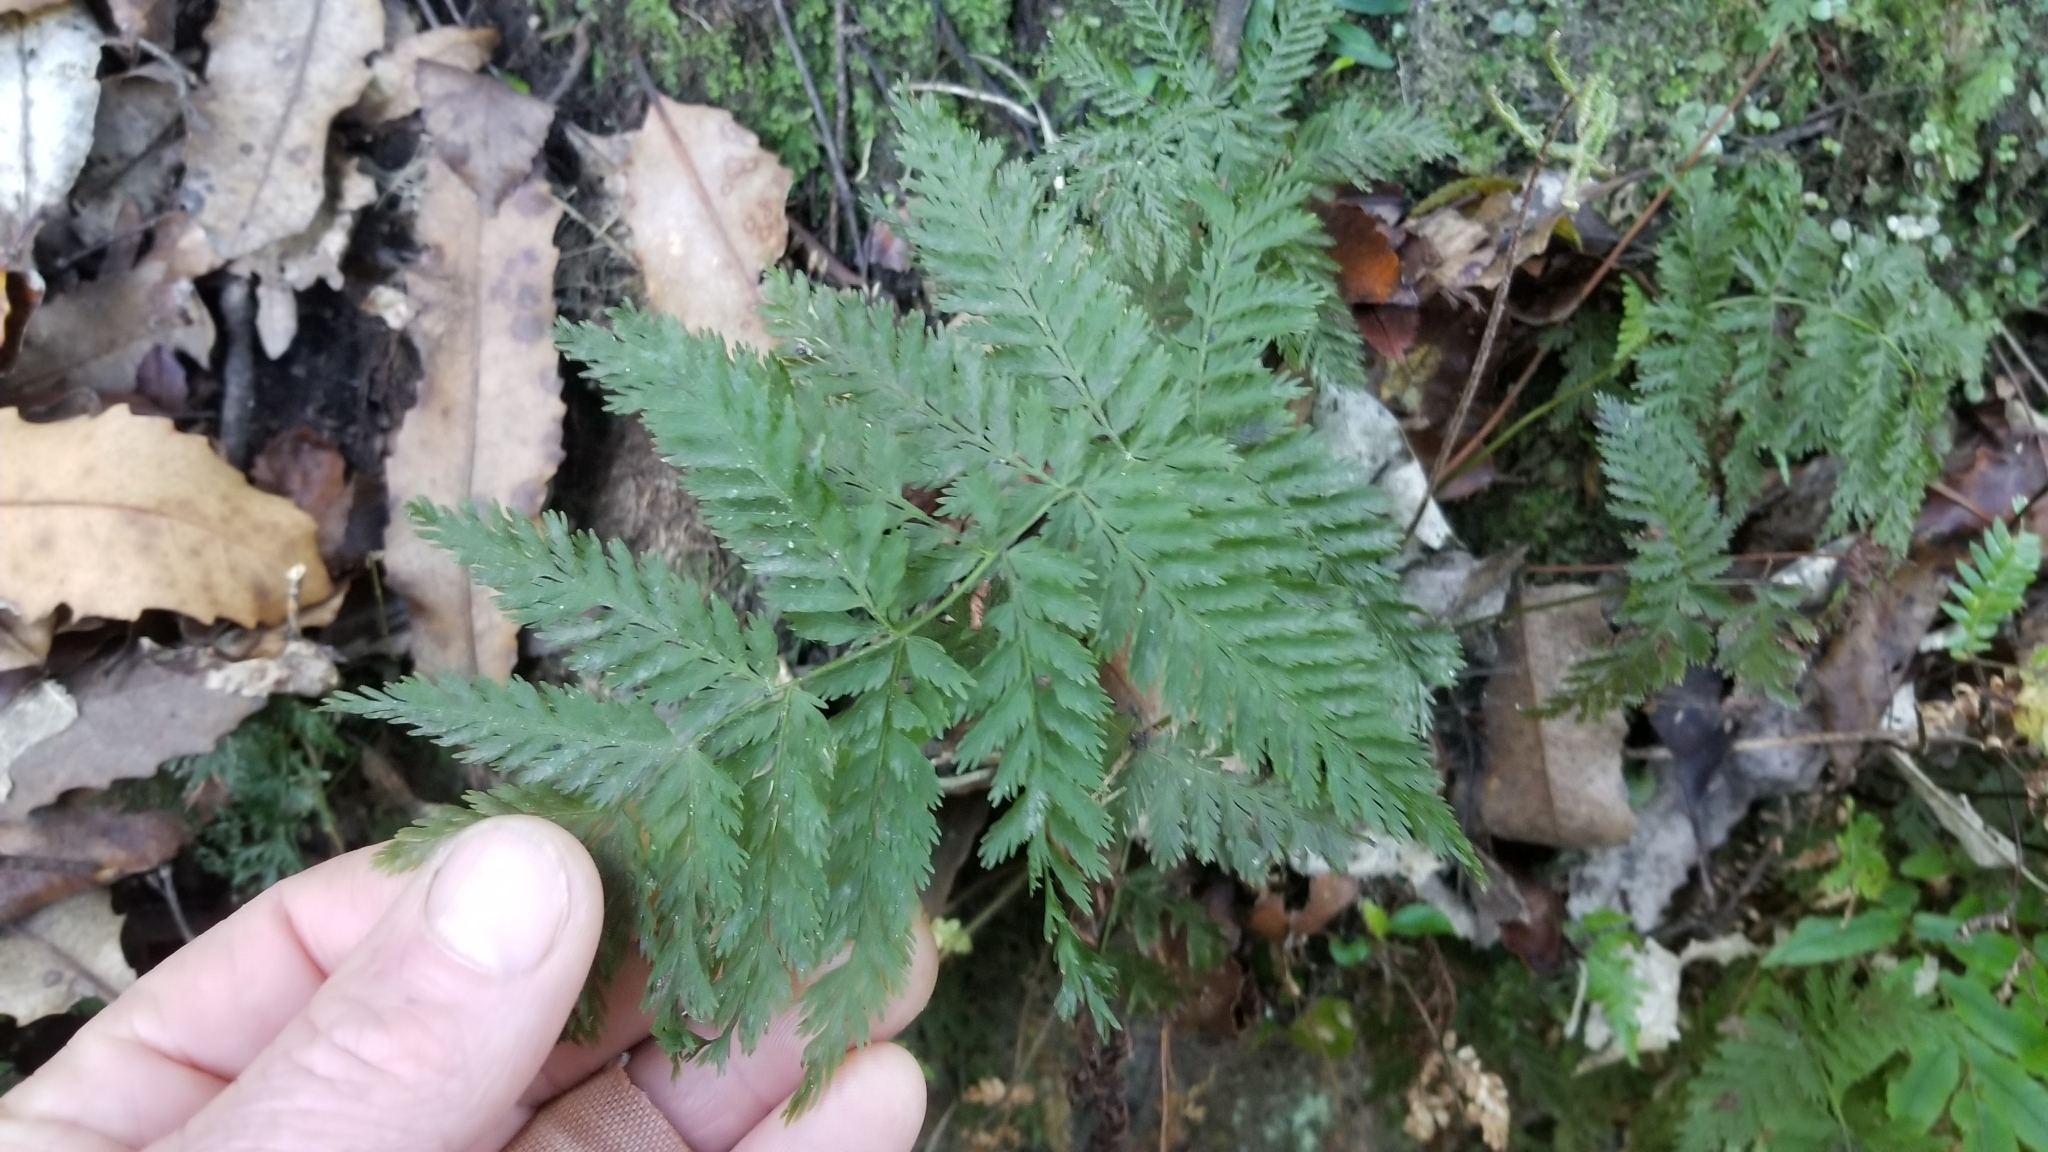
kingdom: Plantae
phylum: Tracheophyta
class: Polypodiopsida
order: Osmundales
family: Osmundaceae
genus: Leptopteris
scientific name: Leptopteris hymenophylloides
